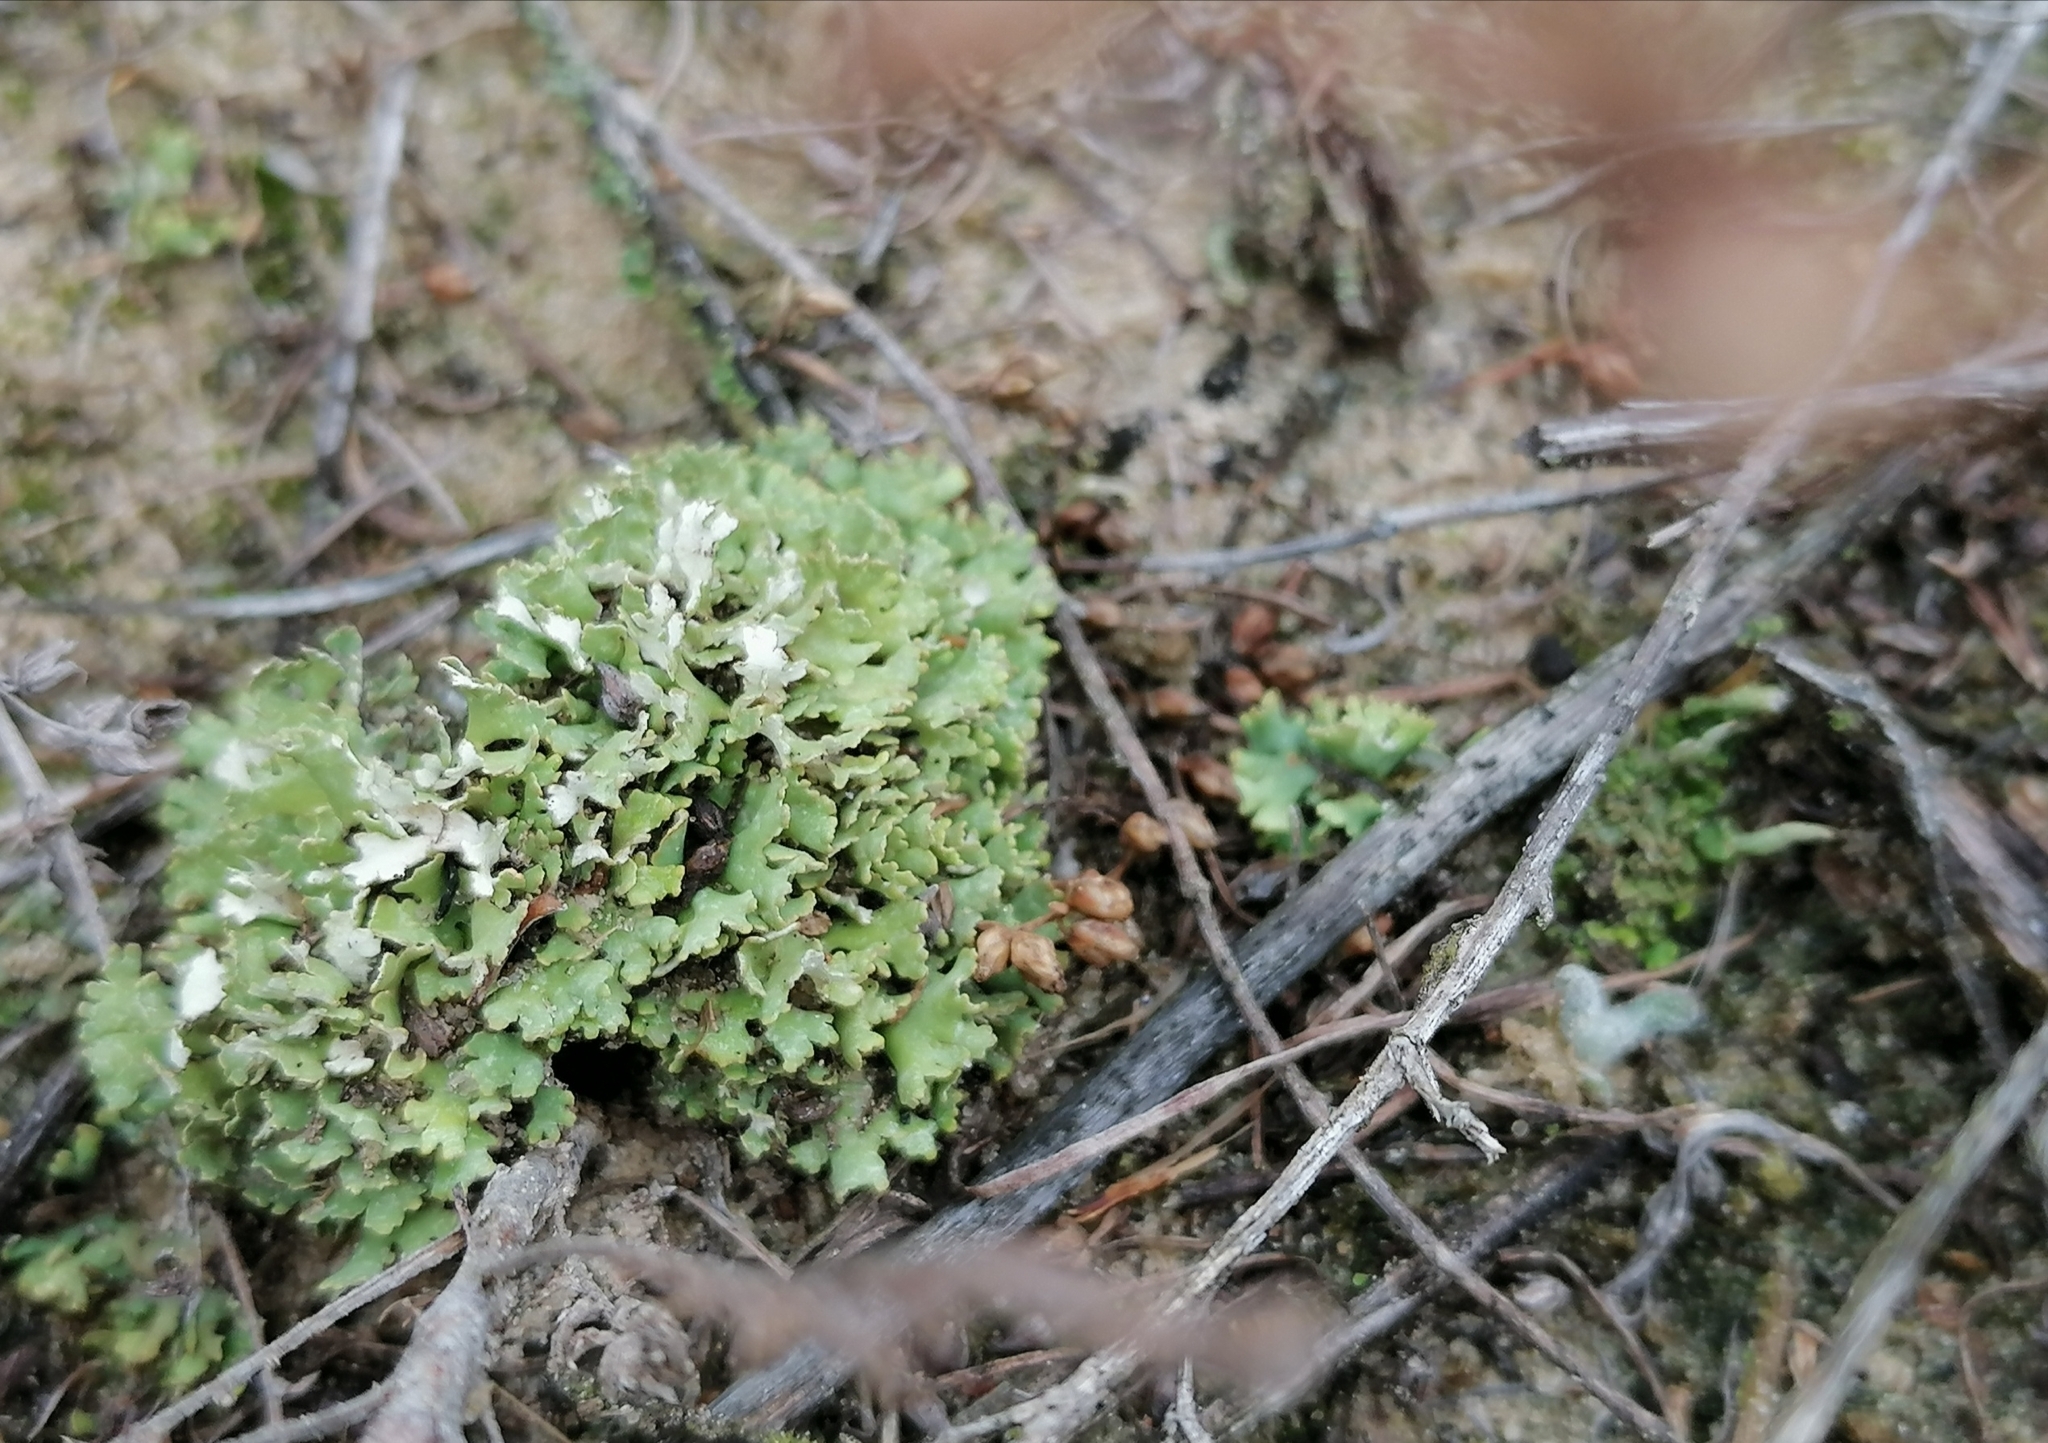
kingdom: Fungi
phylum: Ascomycota
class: Lecanoromycetes
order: Lecanorales
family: Cladoniaceae
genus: Cladonia
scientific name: Cladonia foliacea
